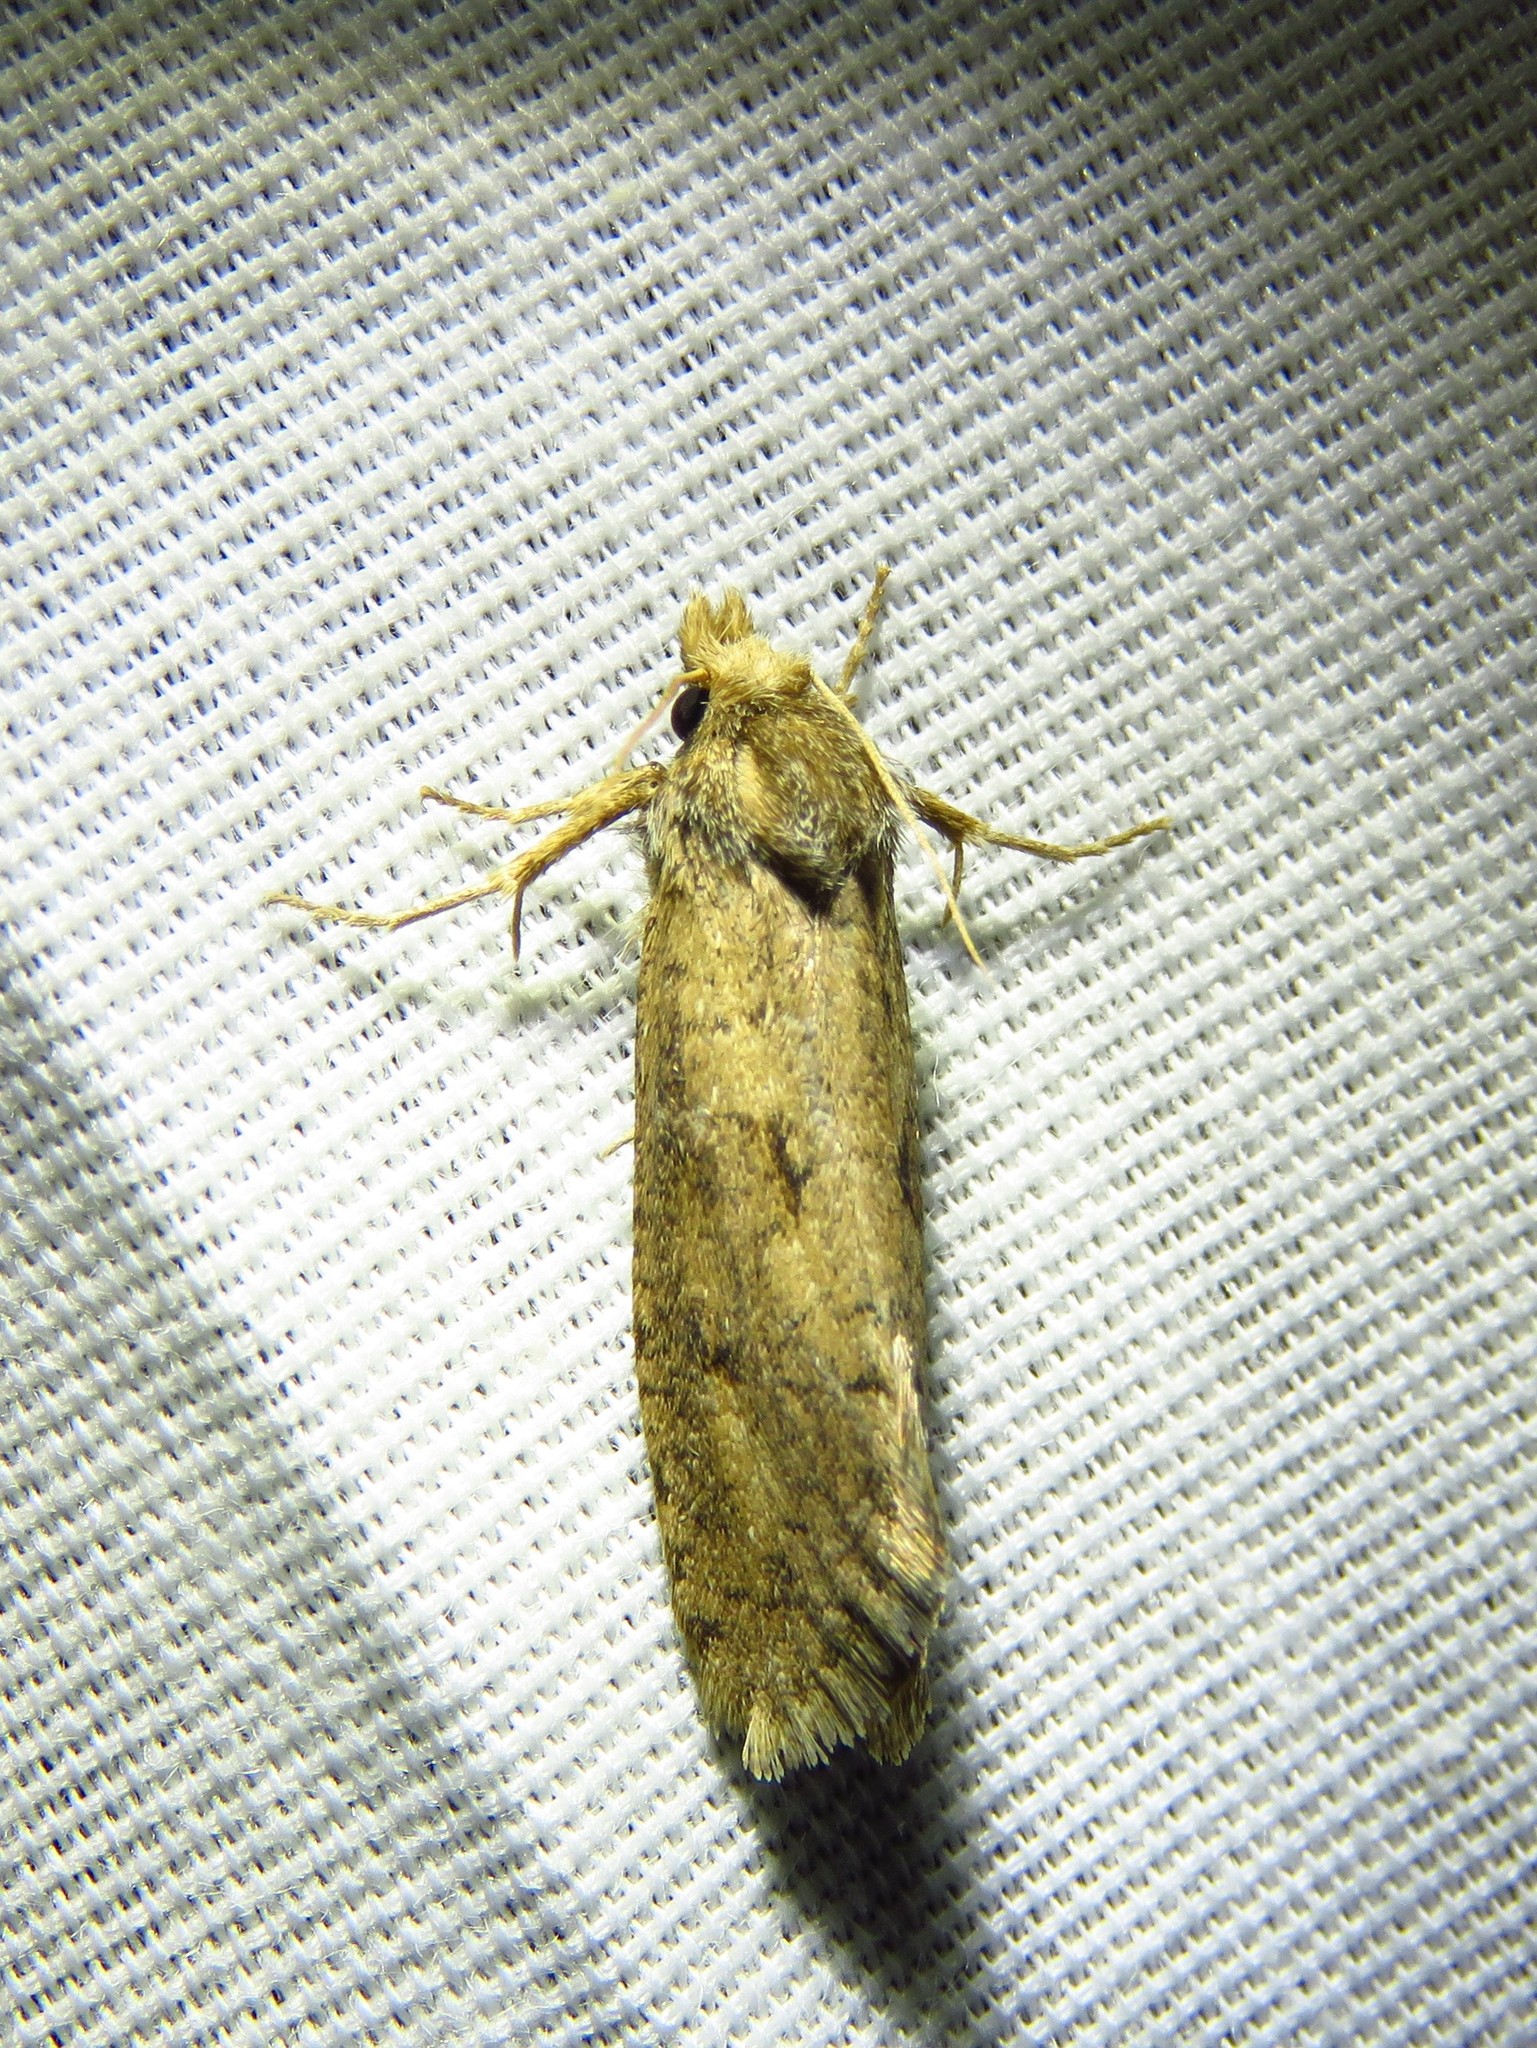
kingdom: Animalia
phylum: Arthropoda
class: Insecta
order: Lepidoptera
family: Tineidae
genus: Acrolophus
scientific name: Acrolophus popeanella
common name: Clemens' grass tubeworm moth
